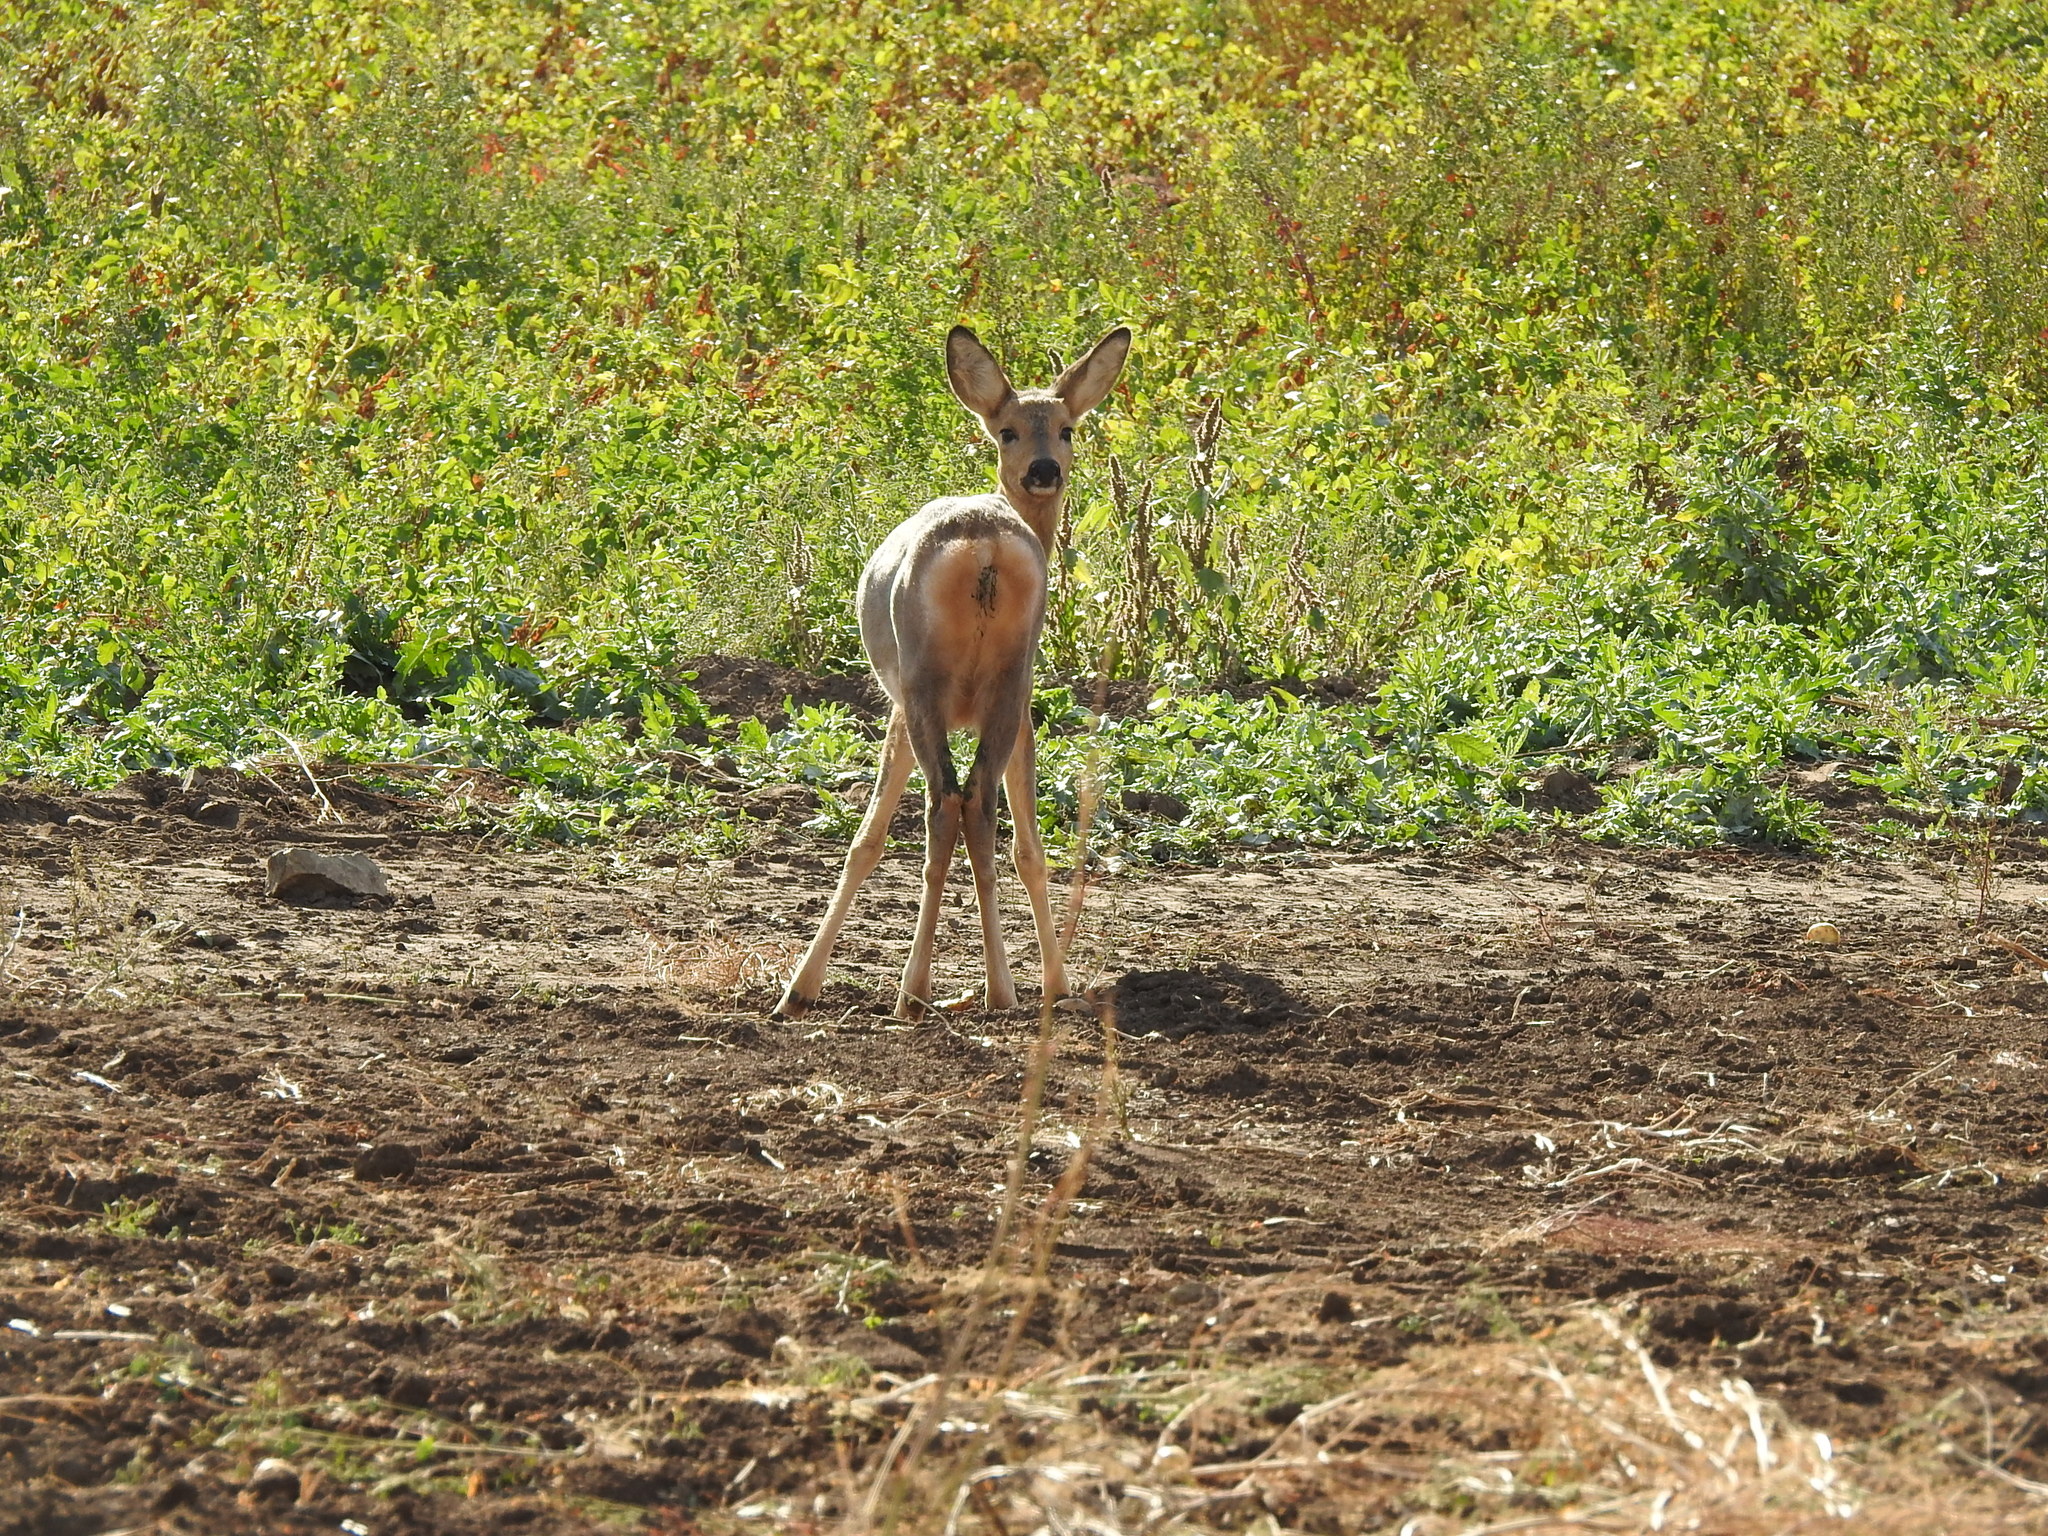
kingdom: Animalia
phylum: Chordata
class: Mammalia
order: Artiodactyla
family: Cervidae
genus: Capreolus
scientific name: Capreolus pygargus
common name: Siberian roe
